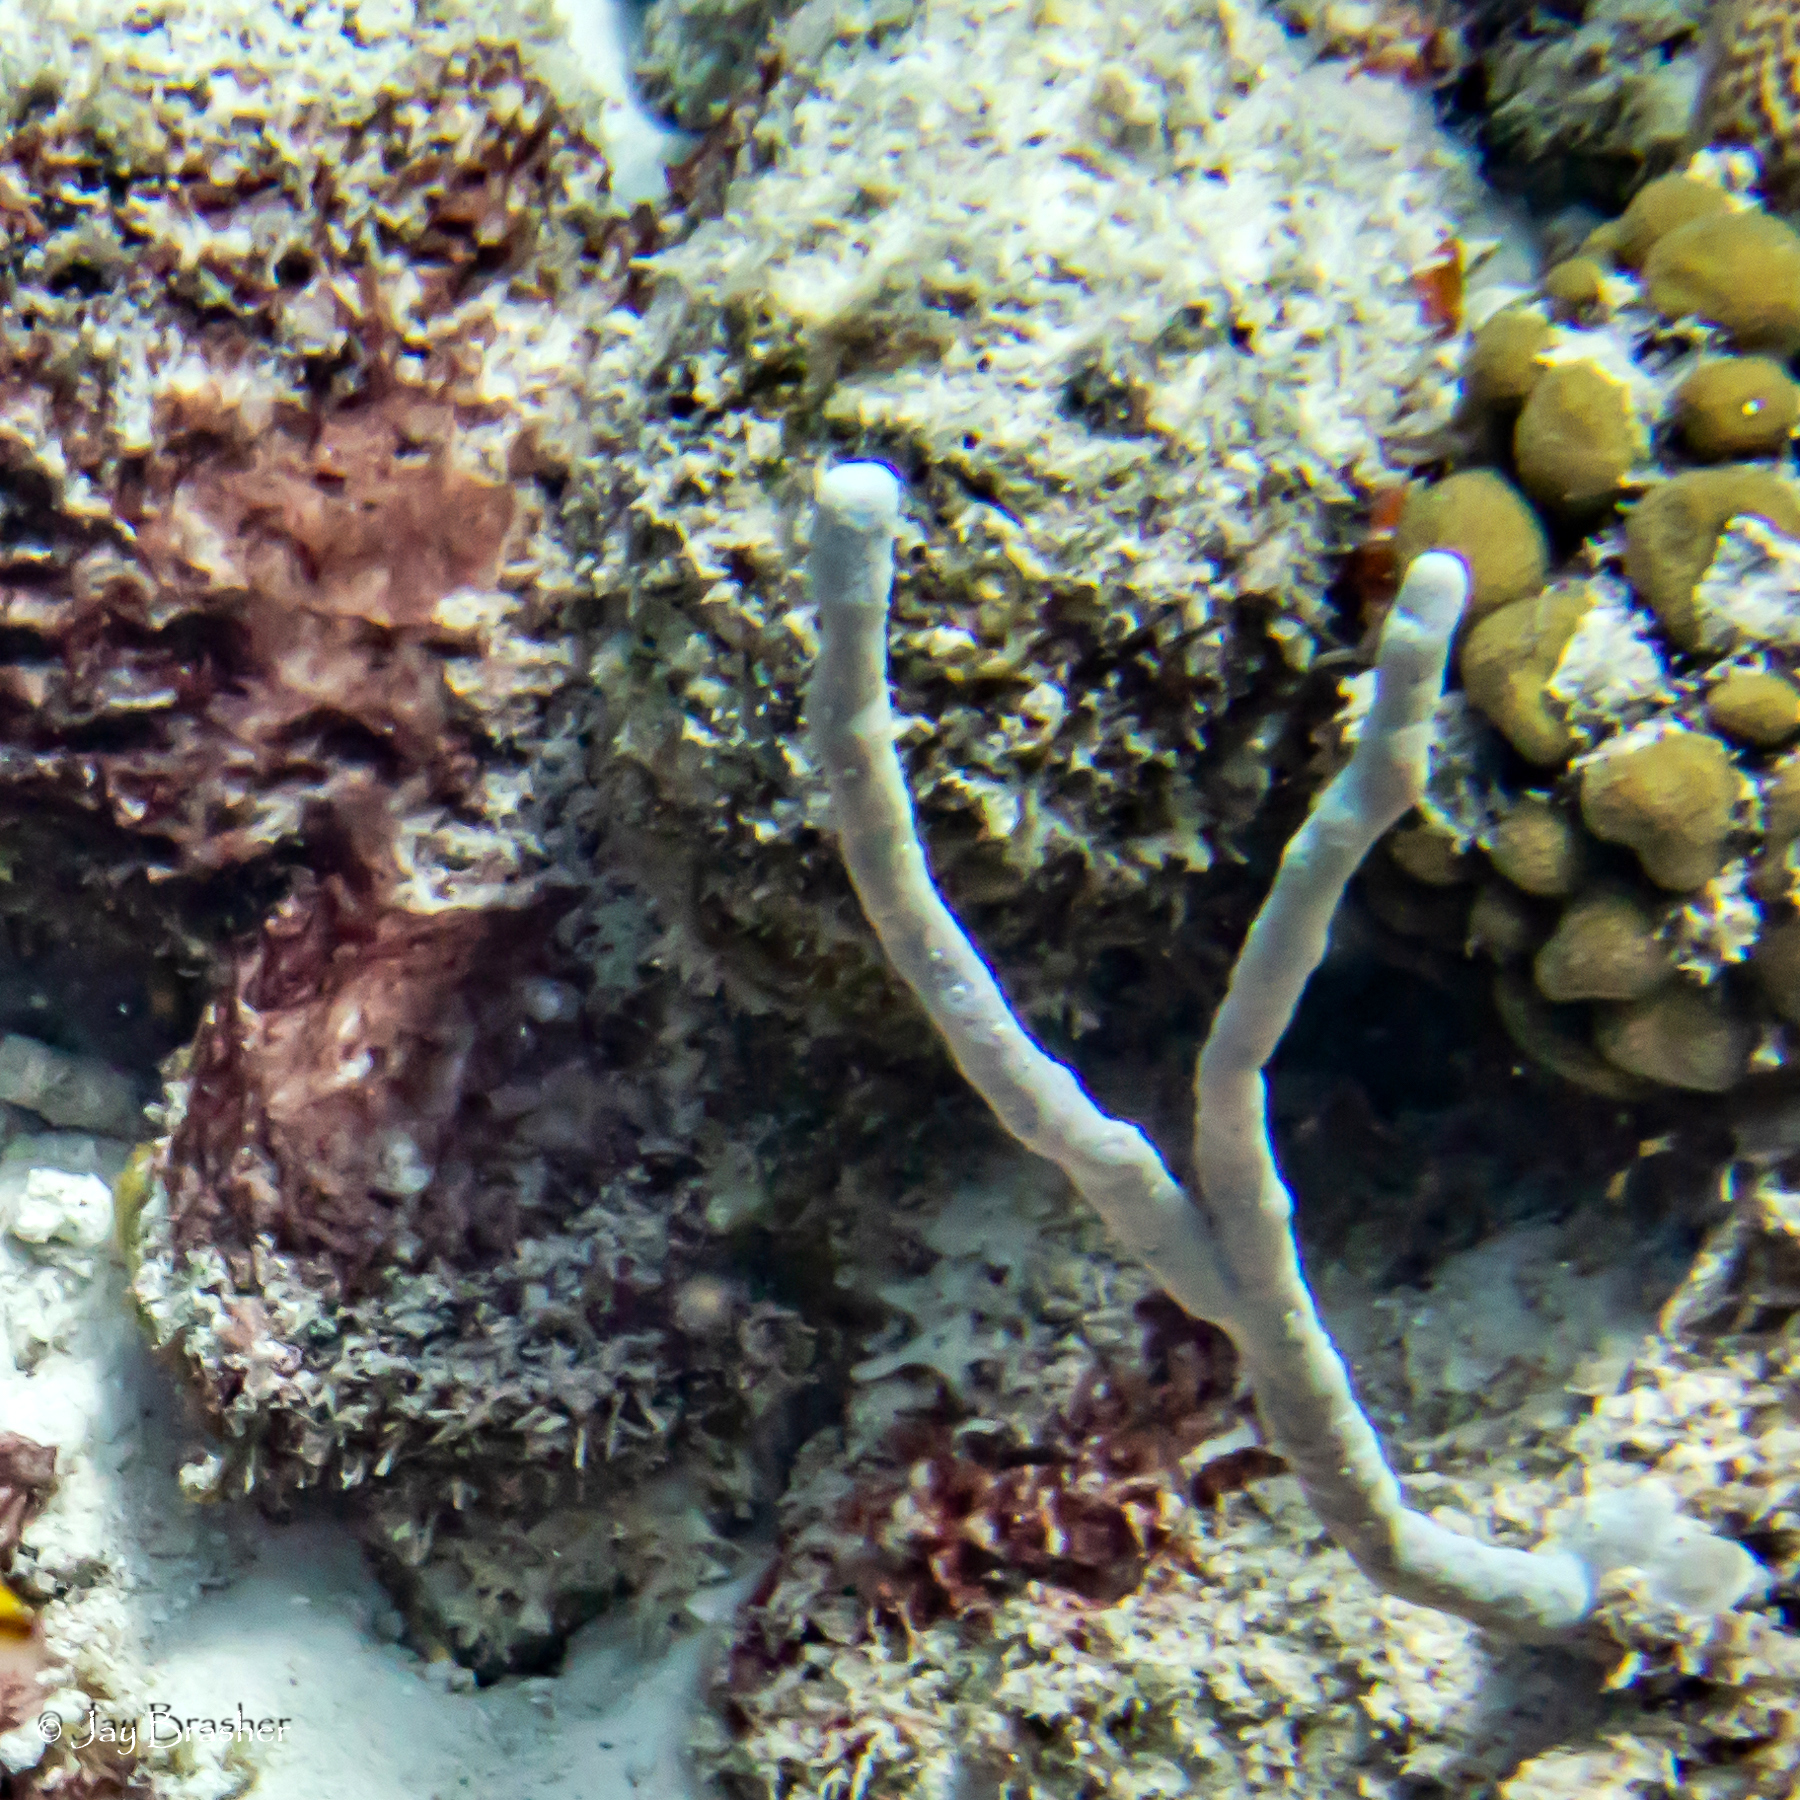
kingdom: Animalia
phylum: Porifera
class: Demospongiae
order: Verongiida
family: Aplysinidae
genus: Aplysina
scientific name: Aplysina cauliformis
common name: Branching candle sponge
